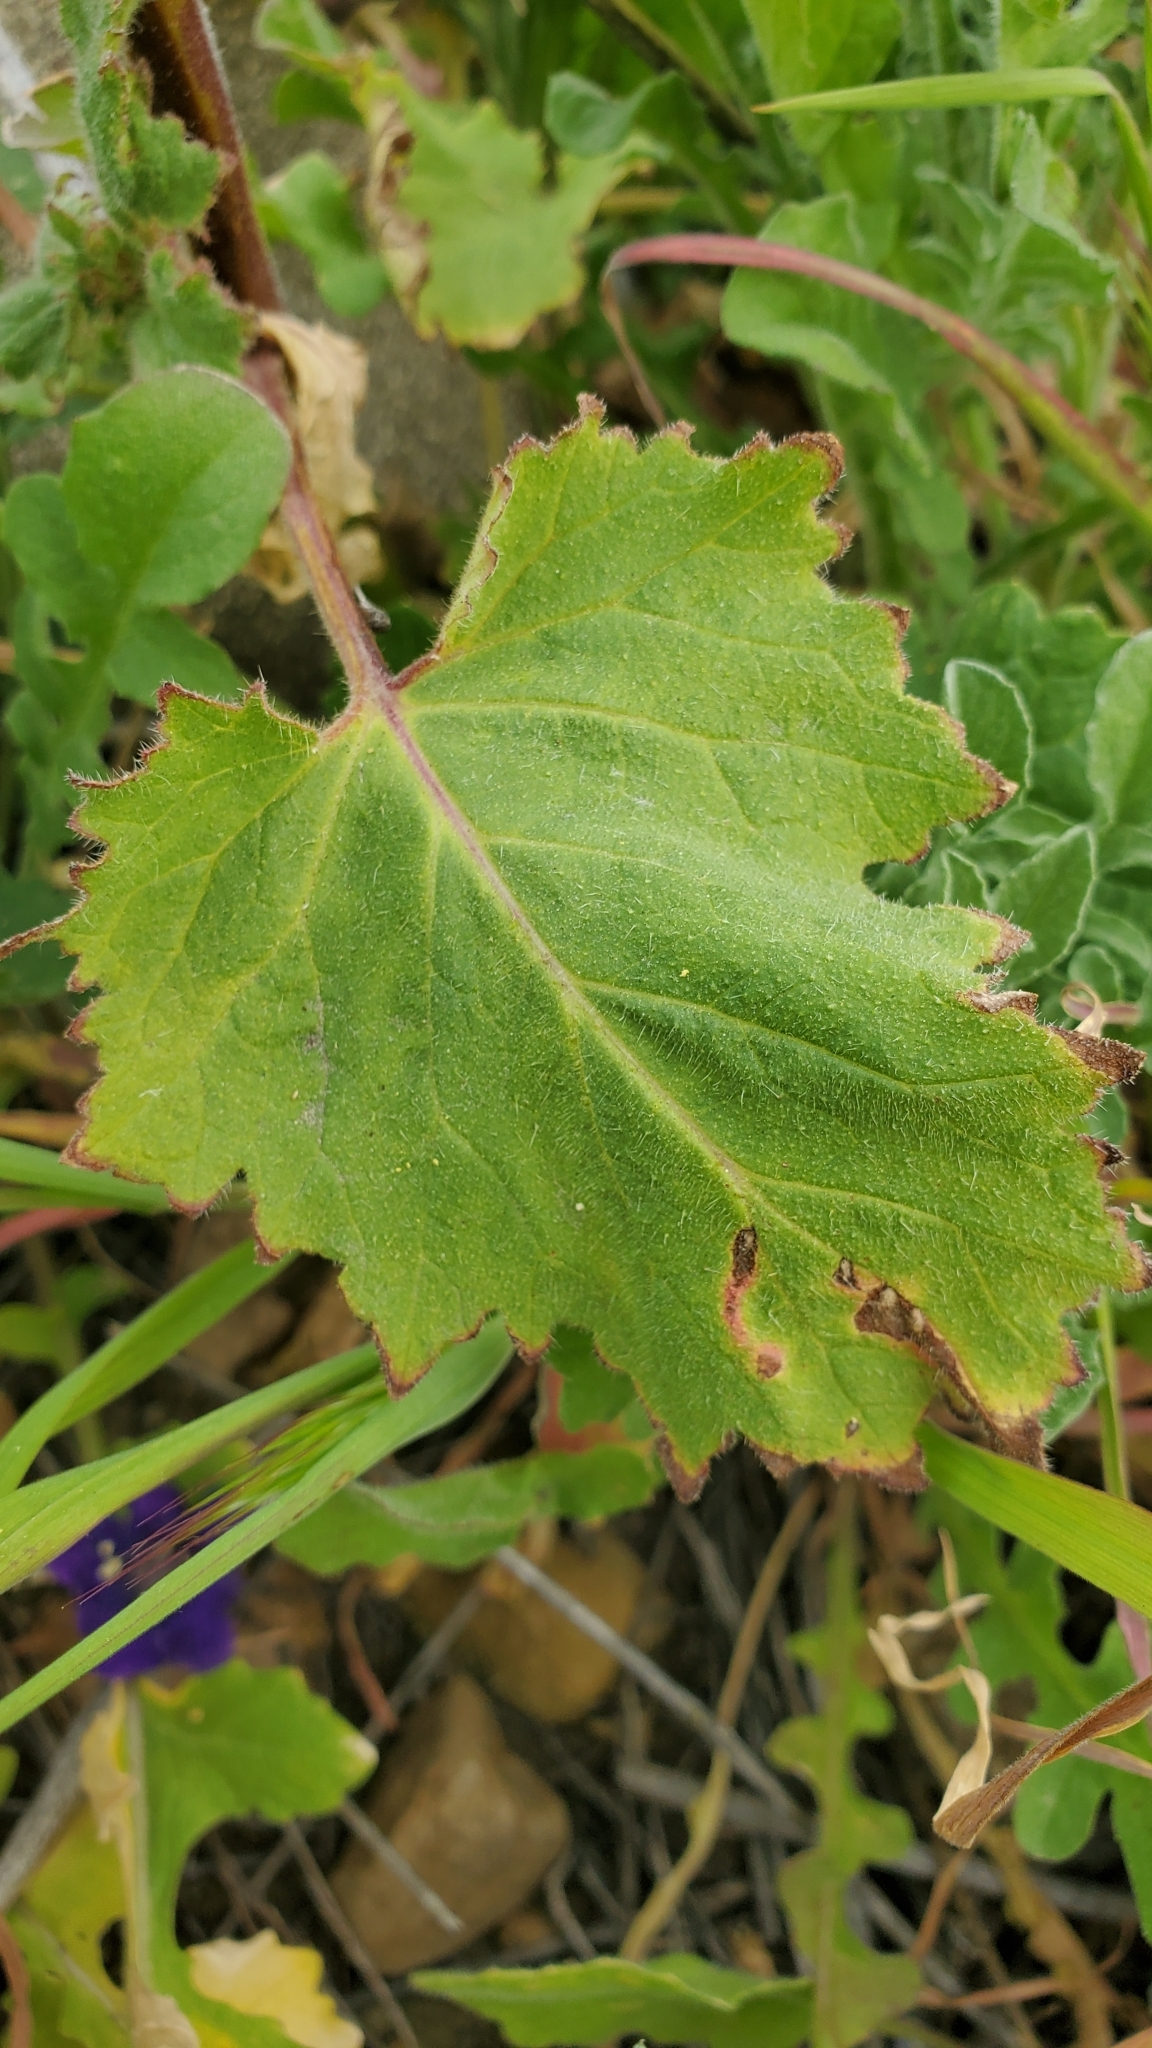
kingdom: Plantae
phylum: Tracheophyta
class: Magnoliopsida
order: Boraginales
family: Hydrophyllaceae
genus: Phacelia
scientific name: Phacelia parryi
